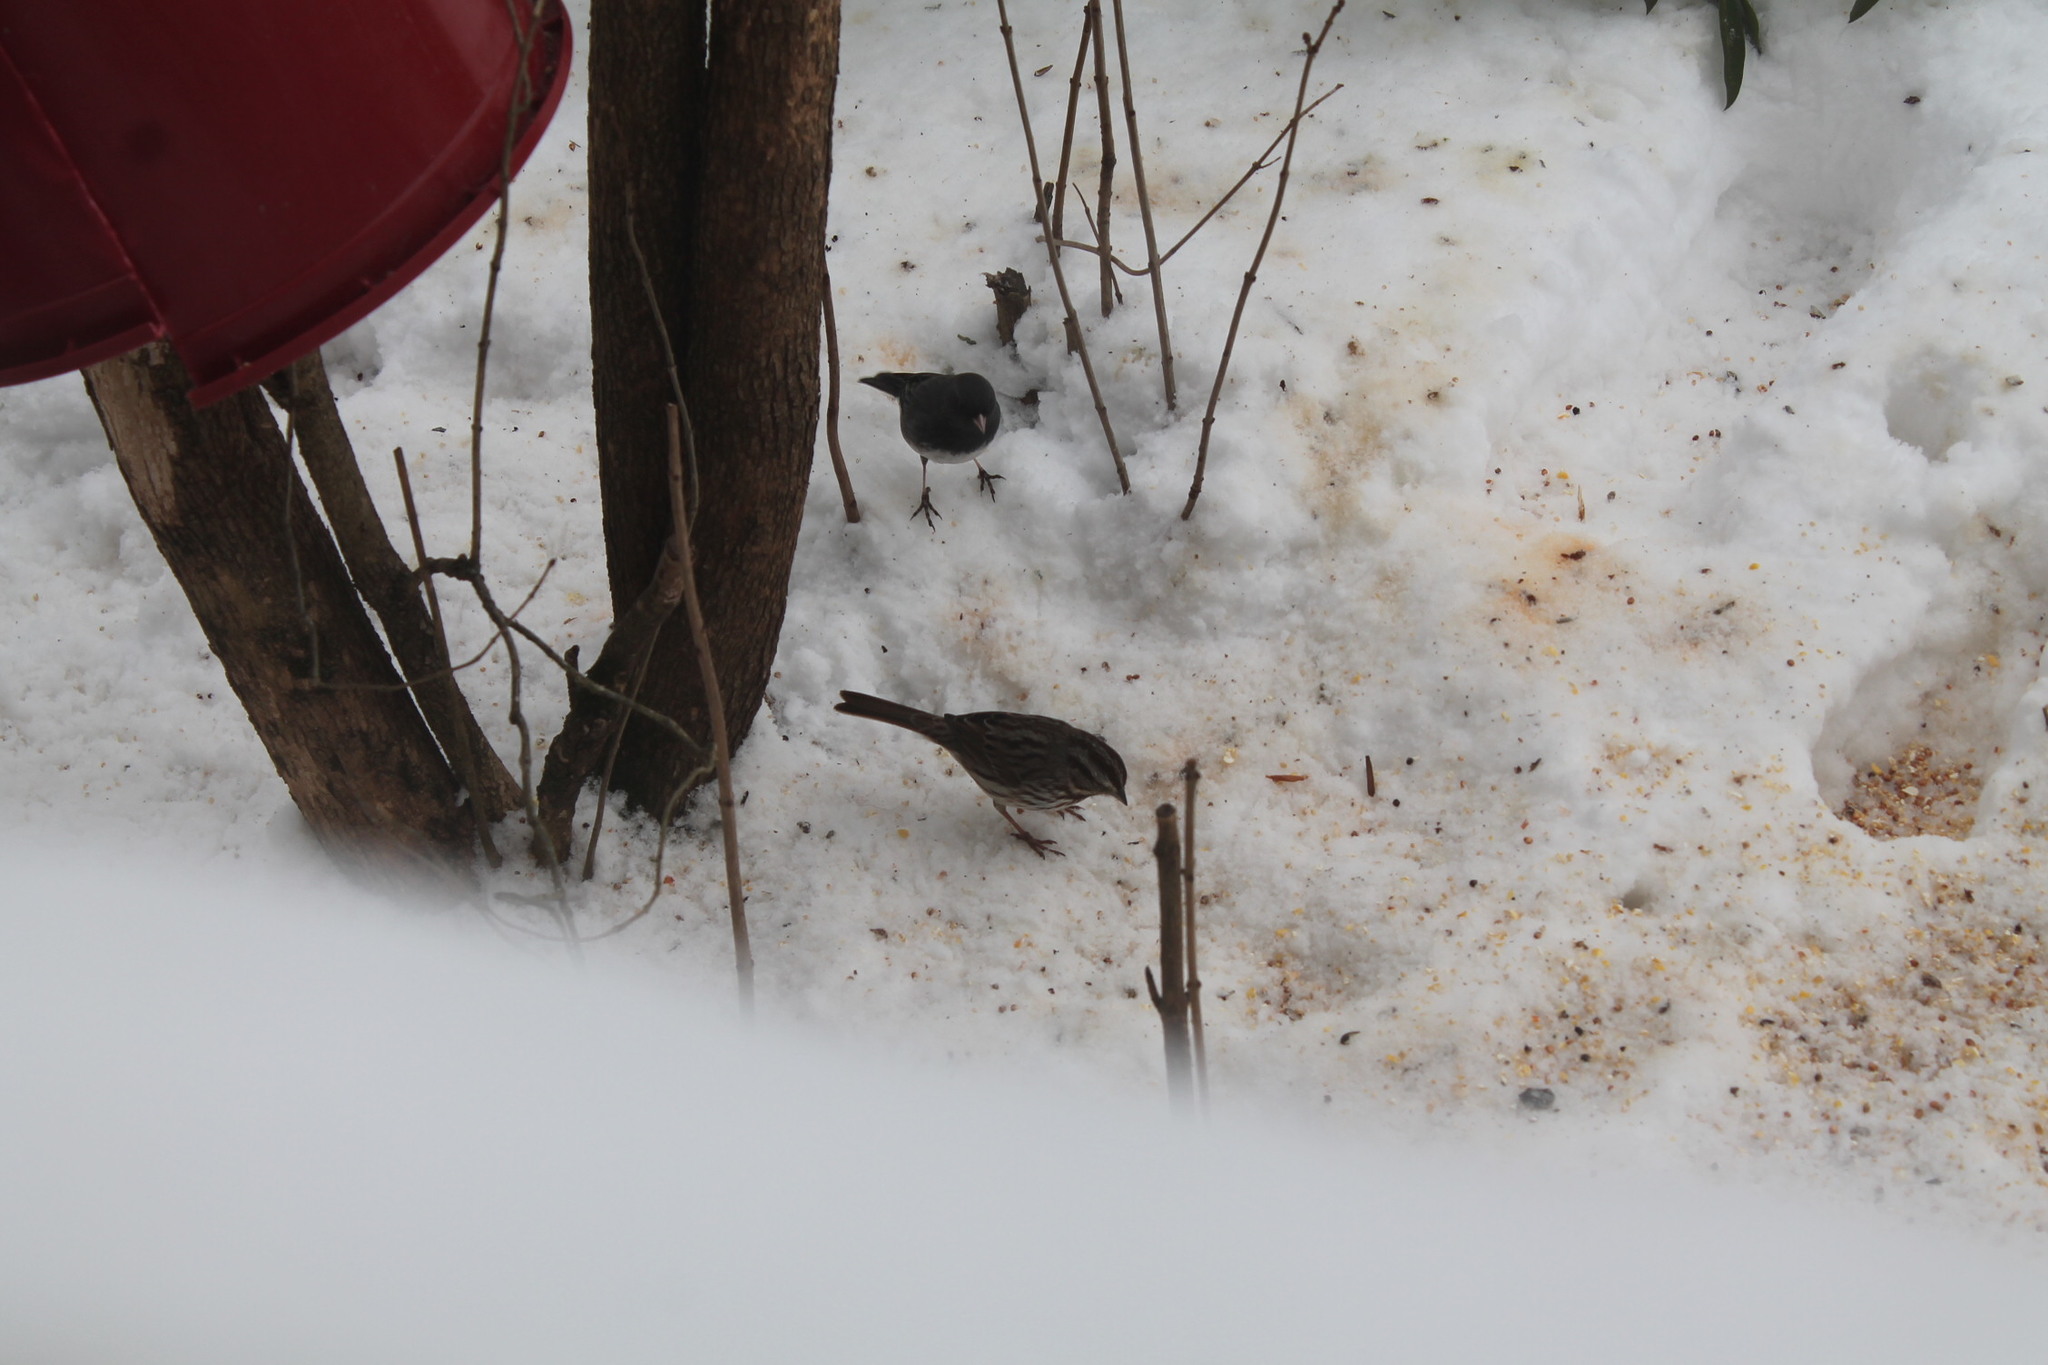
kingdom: Animalia
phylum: Chordata
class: Aves
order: Passeriformes
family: Passerellidae
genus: Melospiza
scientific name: Melospiza melodia
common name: Song sparrow
